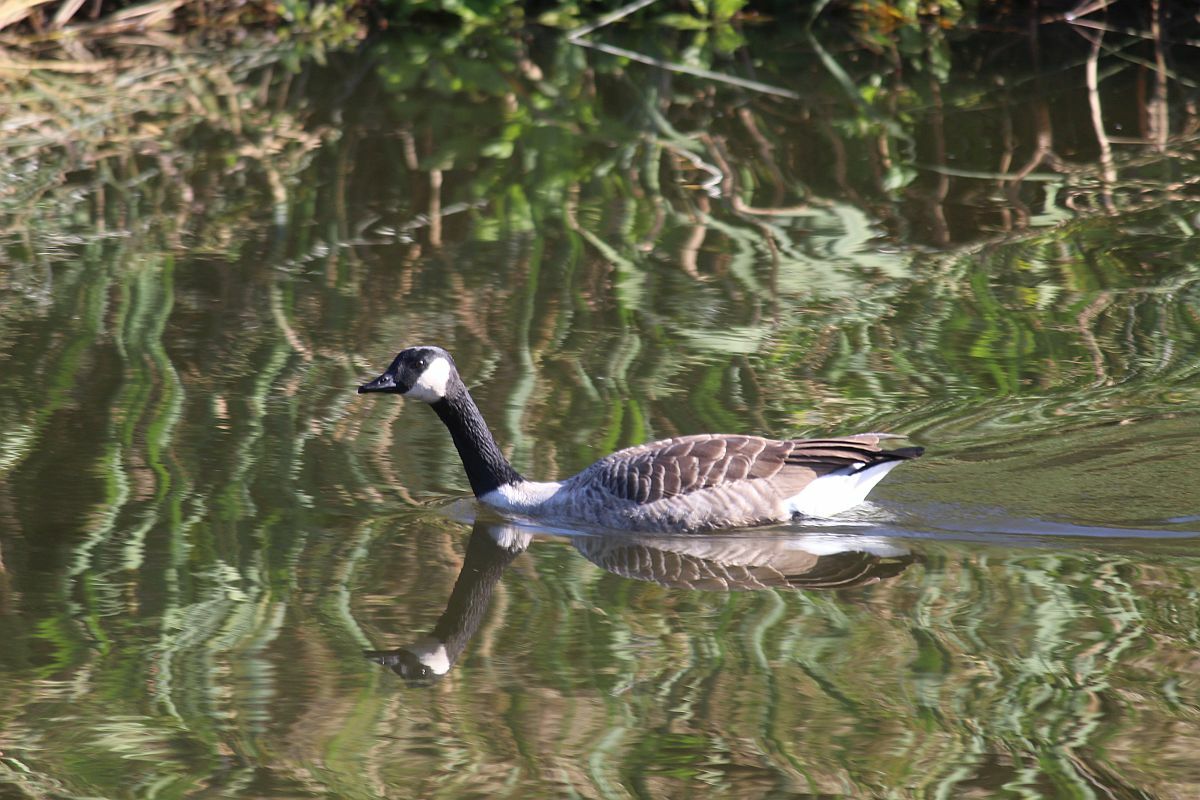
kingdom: Animalia
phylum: Chordata
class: Aves
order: Anseriformes
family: Anatidae
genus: Branta
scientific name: Branta canadensis
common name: Canada goose
